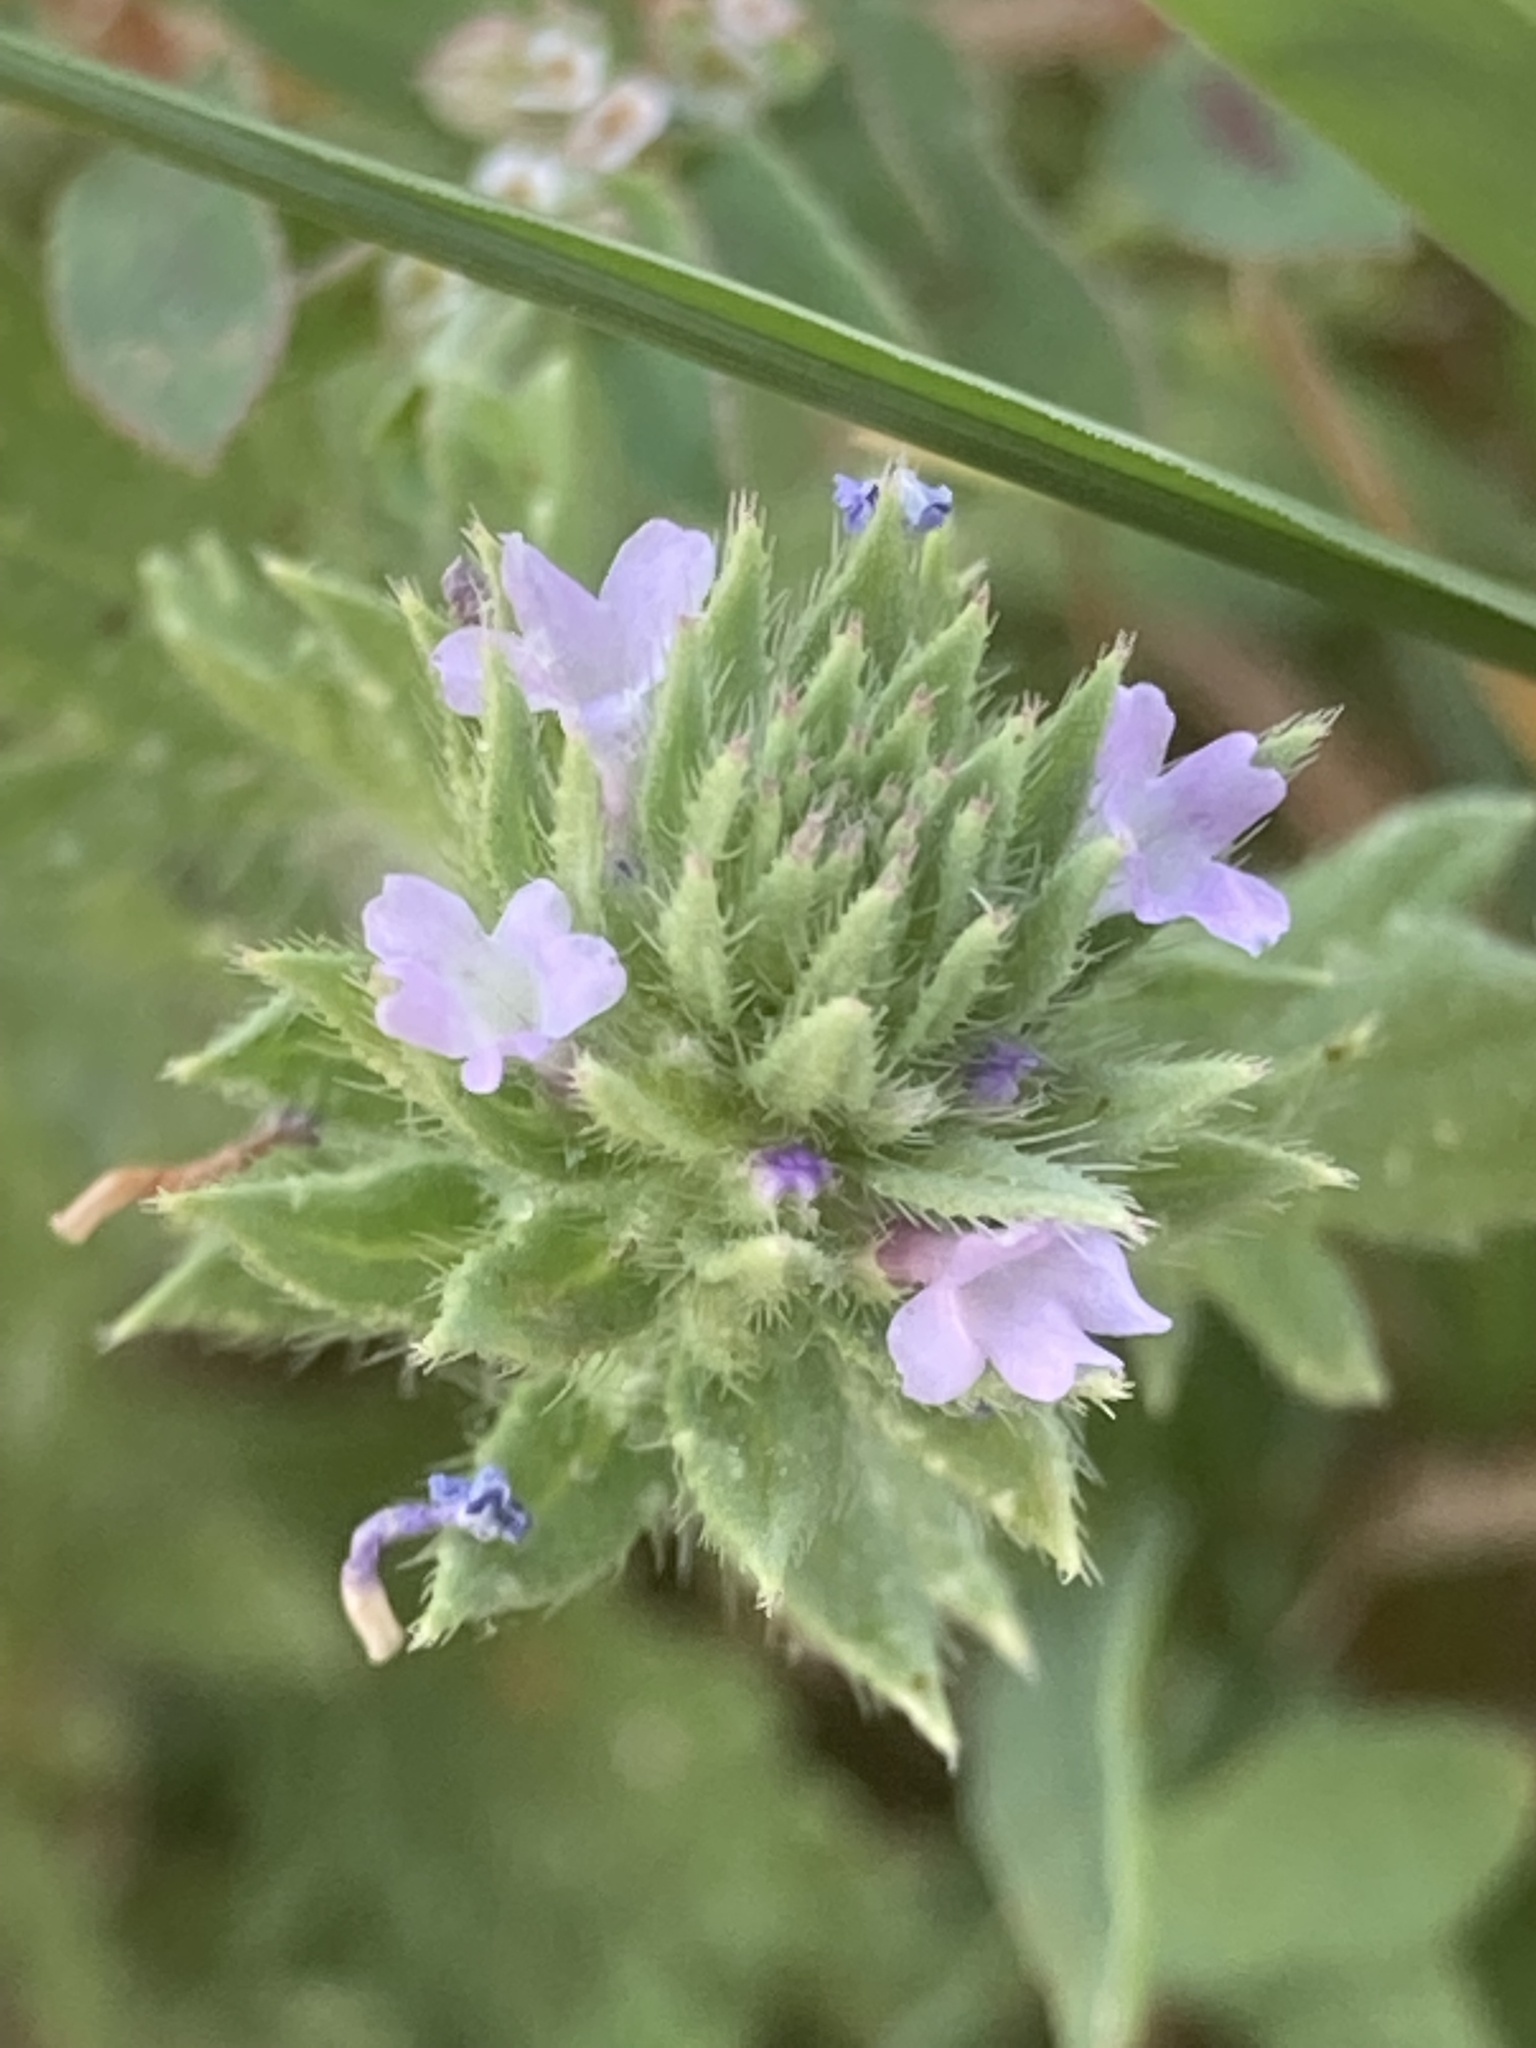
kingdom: Plantae
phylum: Tracheophyta
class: Magnoliopsida
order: Lamiales
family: Verbenaceae
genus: Verbena
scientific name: Verbena bracteata
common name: Bracted vervain
